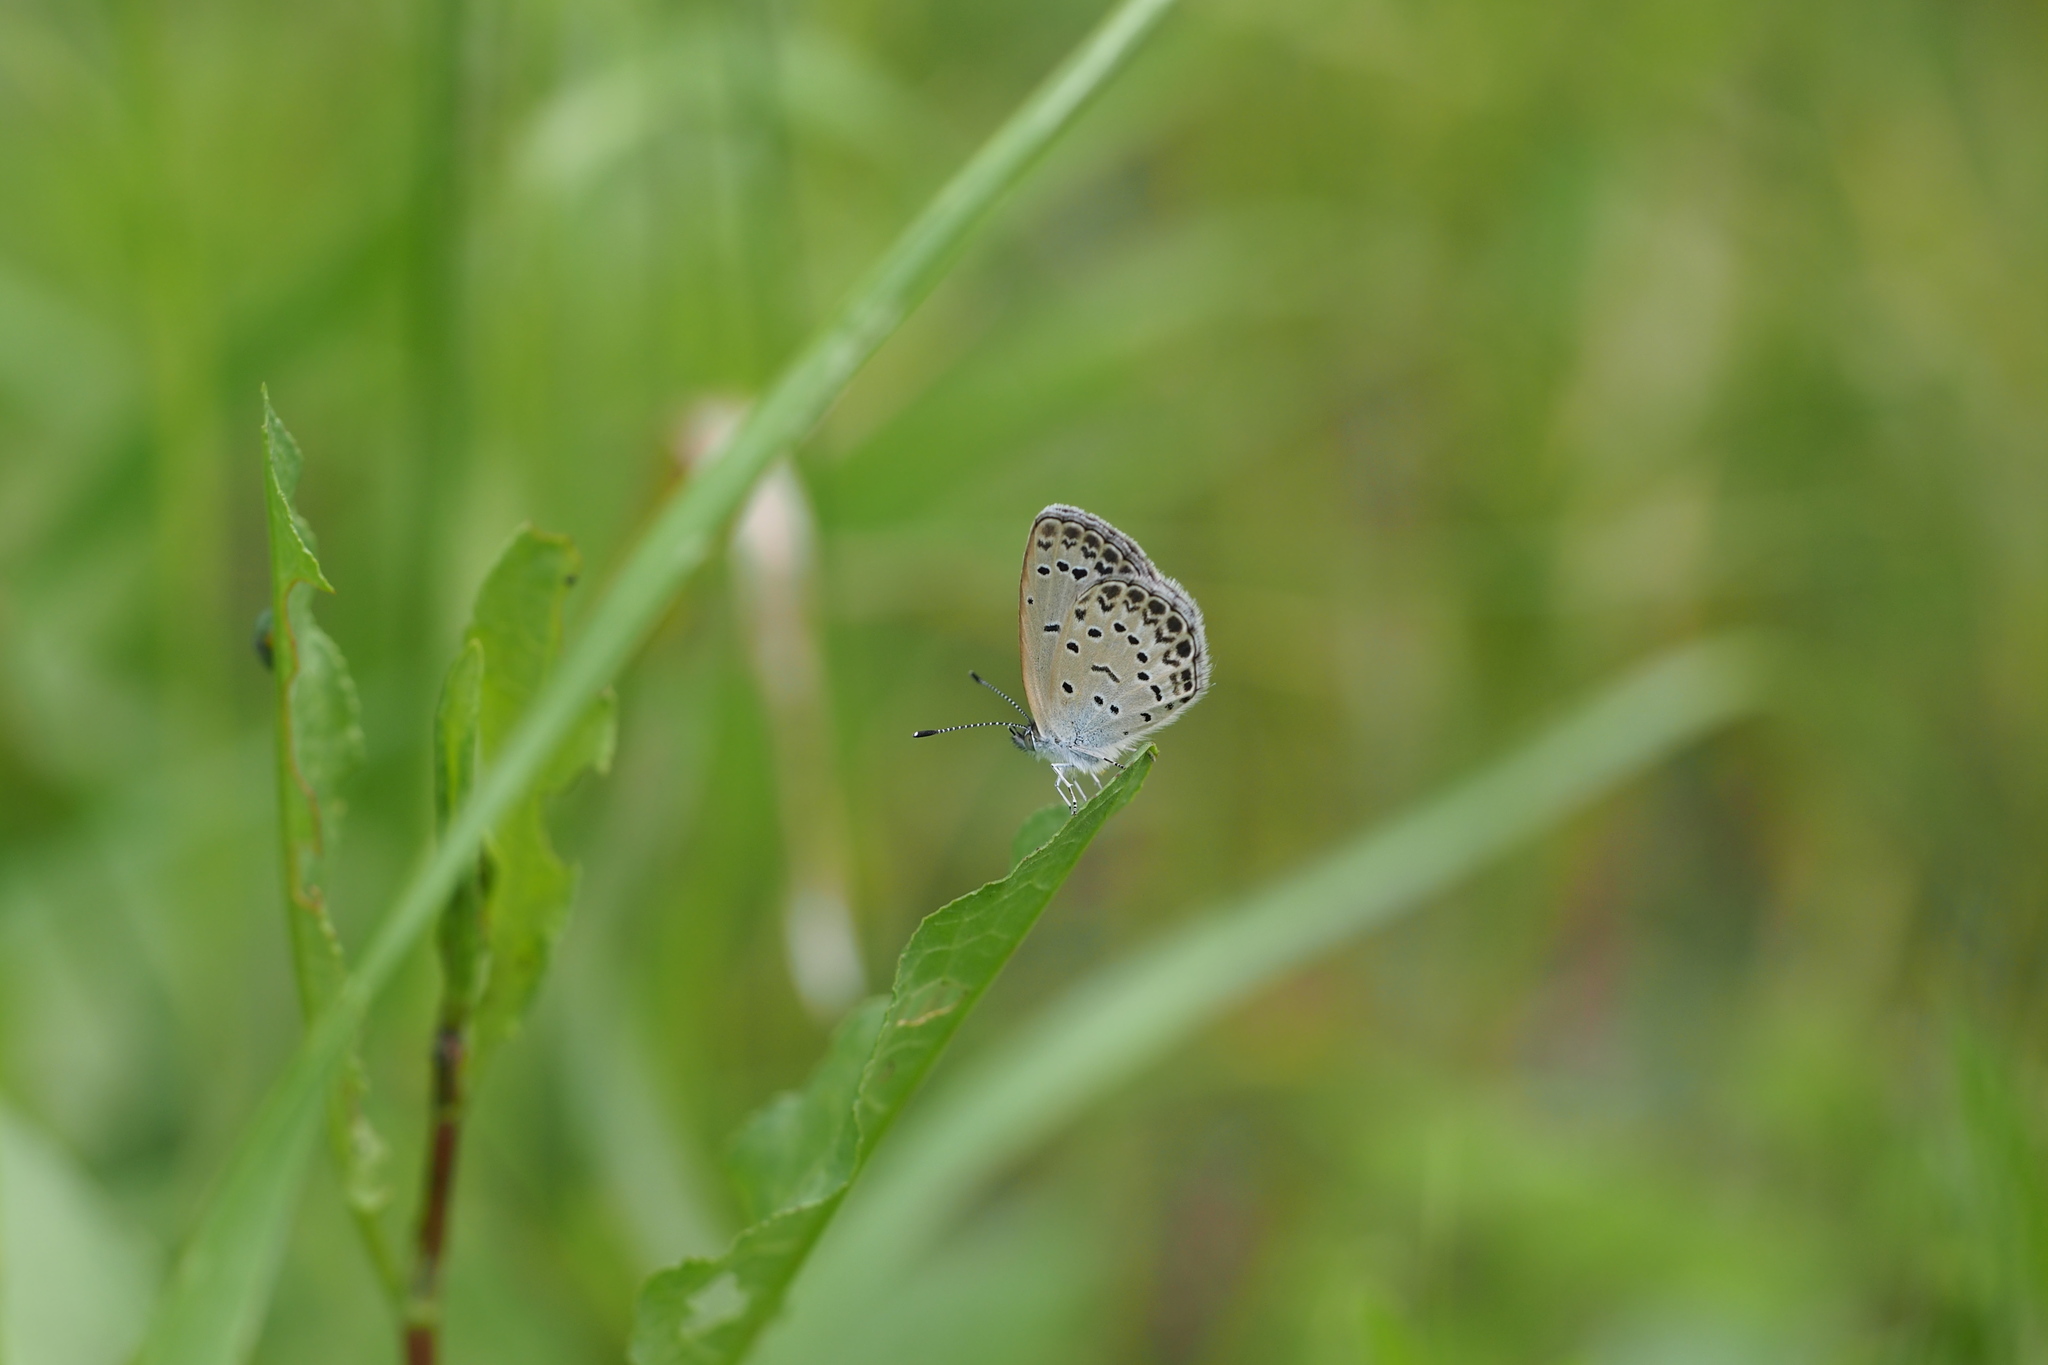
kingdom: Animalia
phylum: Arthropoda
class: Insecta
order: Lepidoptera
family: Lycaenidae
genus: Pseudozizeeria
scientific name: Pseudozizeeria maha
